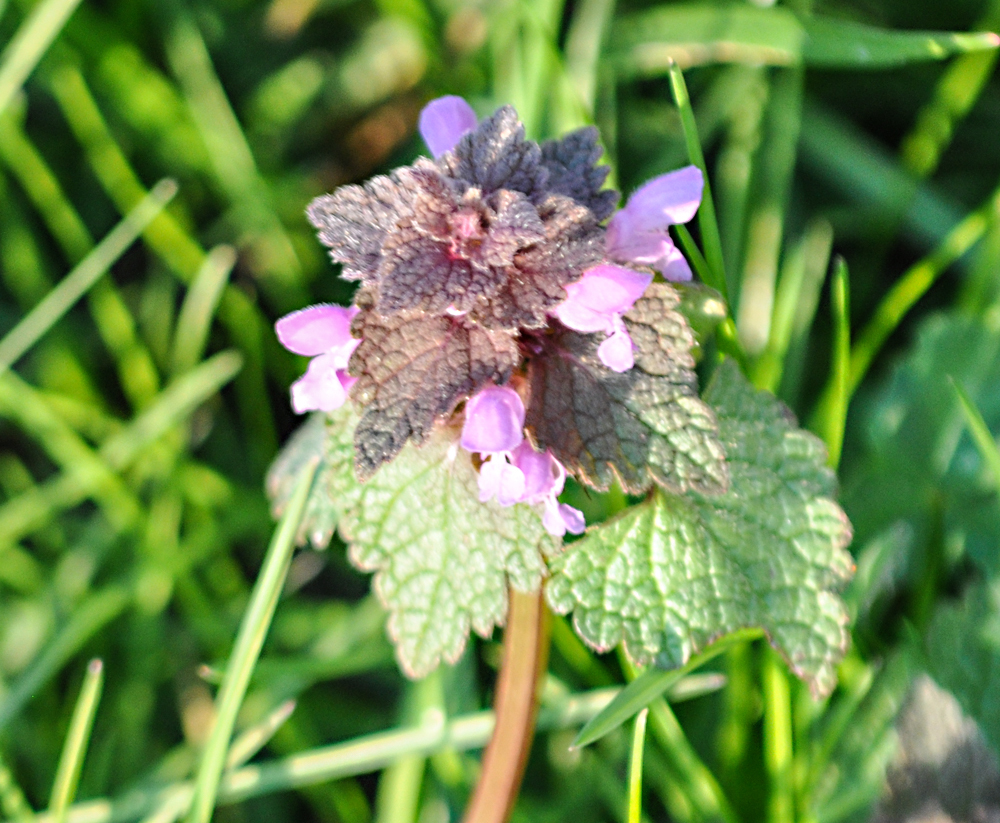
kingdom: Plantae
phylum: Tracheophyta
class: Magnoliopsida
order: Lamiales
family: Lamiaceae
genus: Lamium
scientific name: Lamium purpureum
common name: Red dead-nettle
